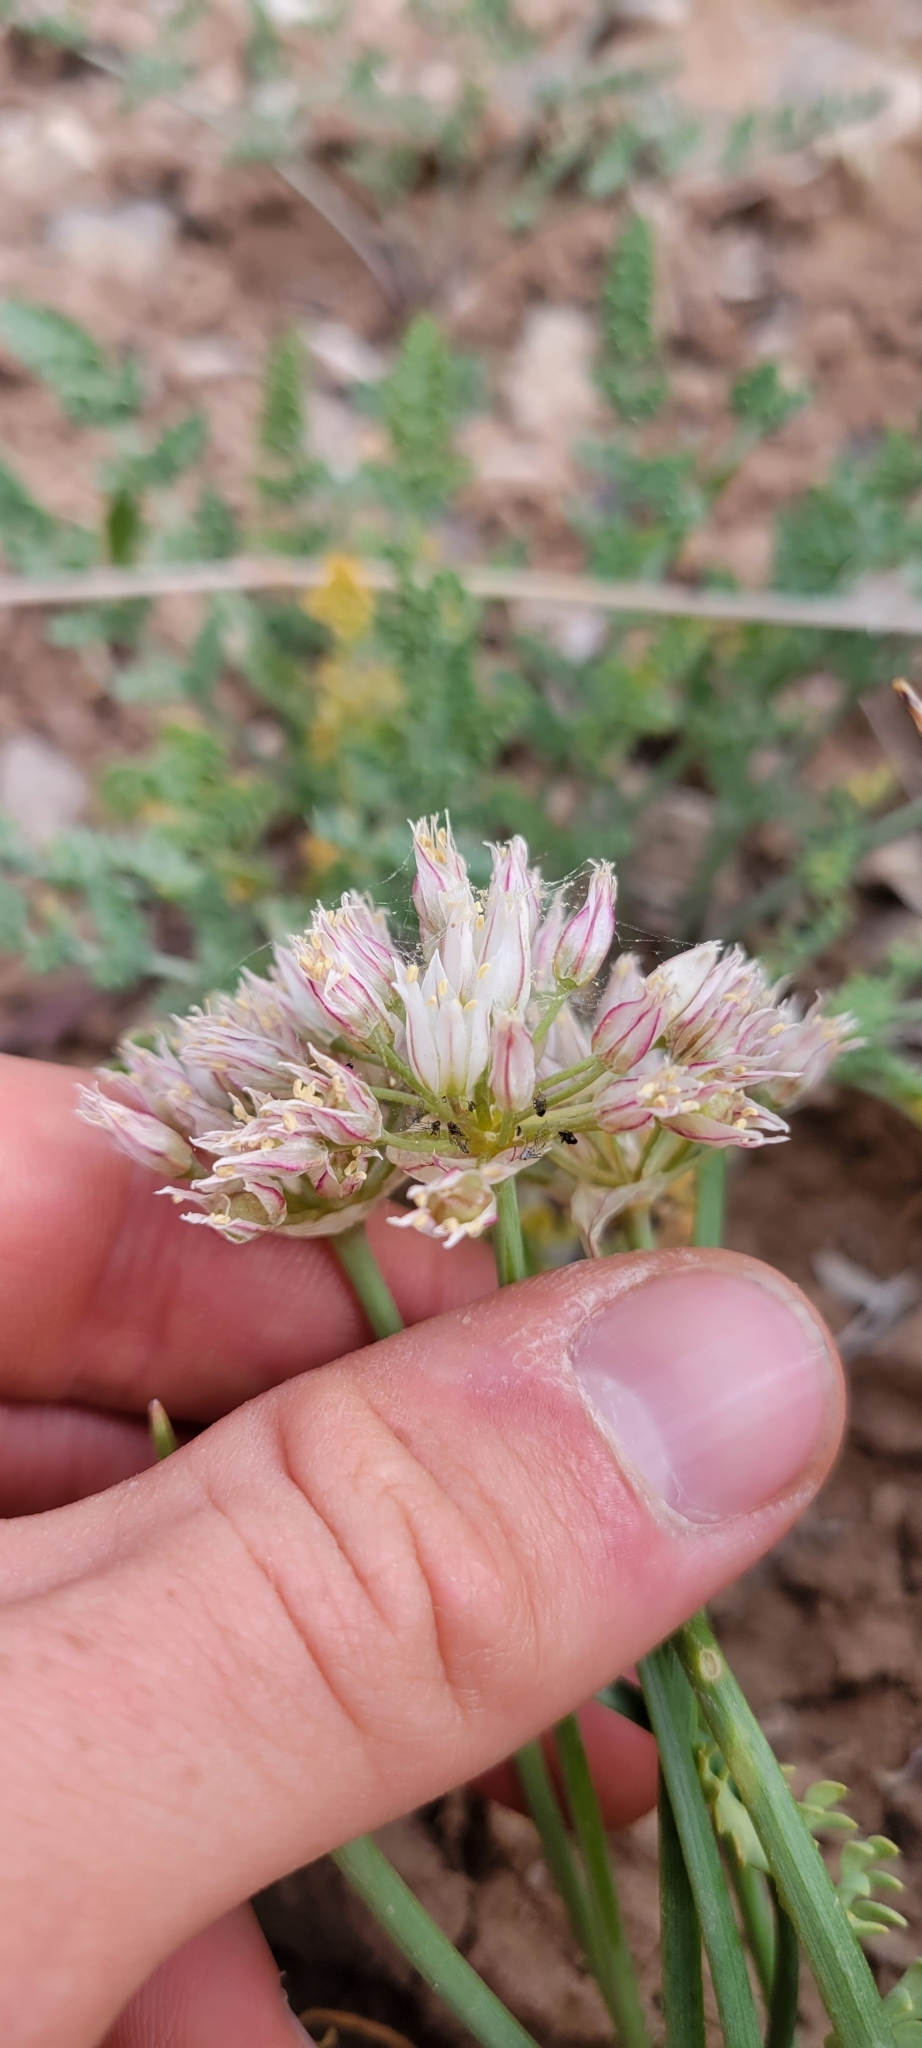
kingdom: Plantae
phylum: Tracheophyta
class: Liliopsida
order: Asparagales
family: Amaryllidaceae
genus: Allium
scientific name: Allium textile
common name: Prairie onion
